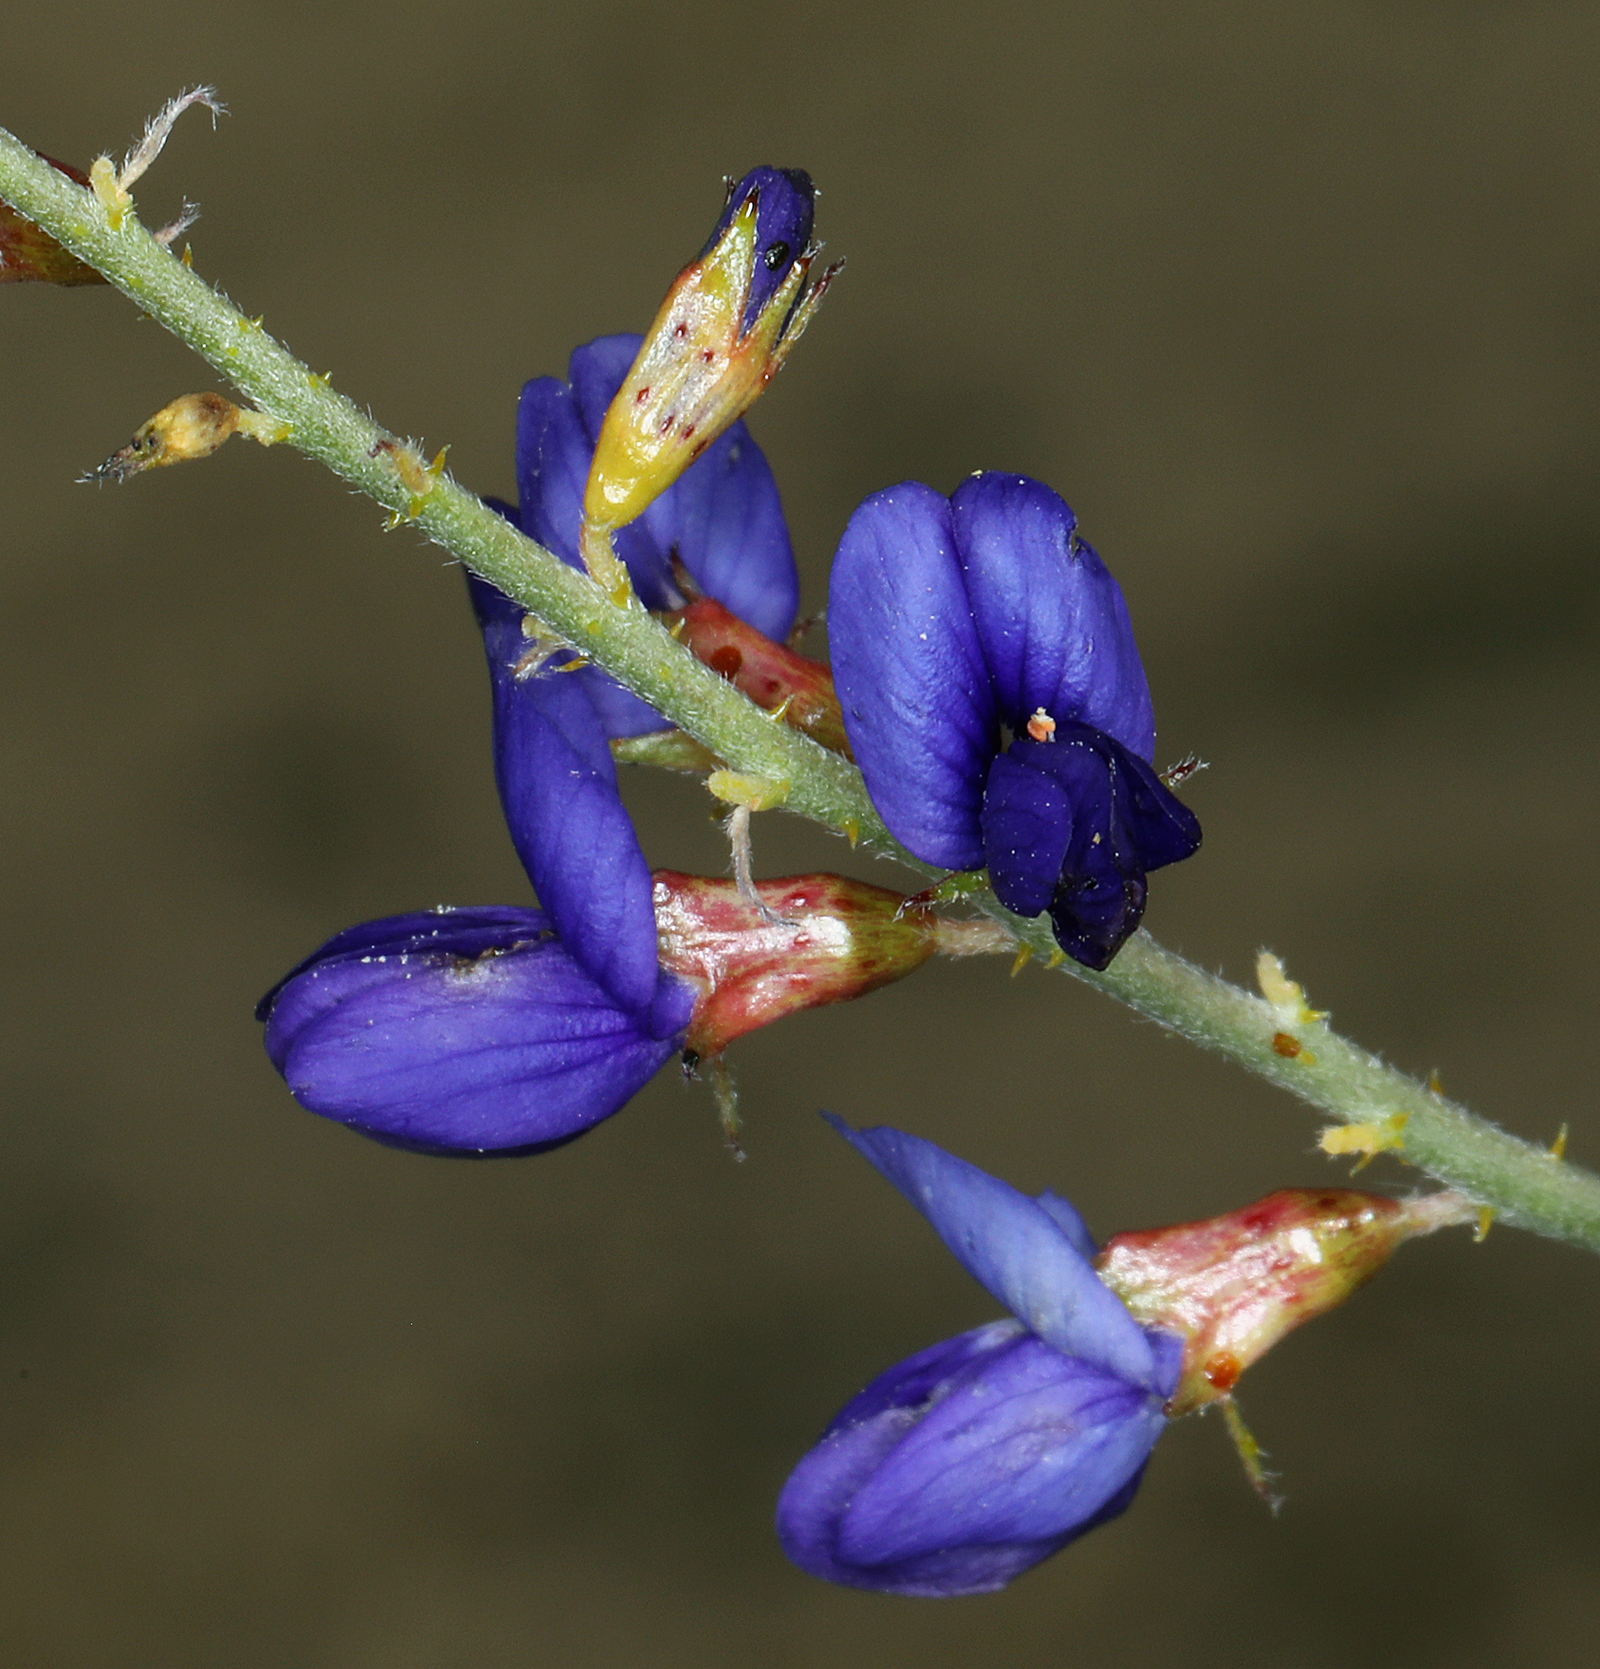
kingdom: Plantae
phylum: Tracheophyta
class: Magnoliopsida
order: Fabales
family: Fabaceae
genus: Psorothamnus
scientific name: Psorothamnus arborescens
